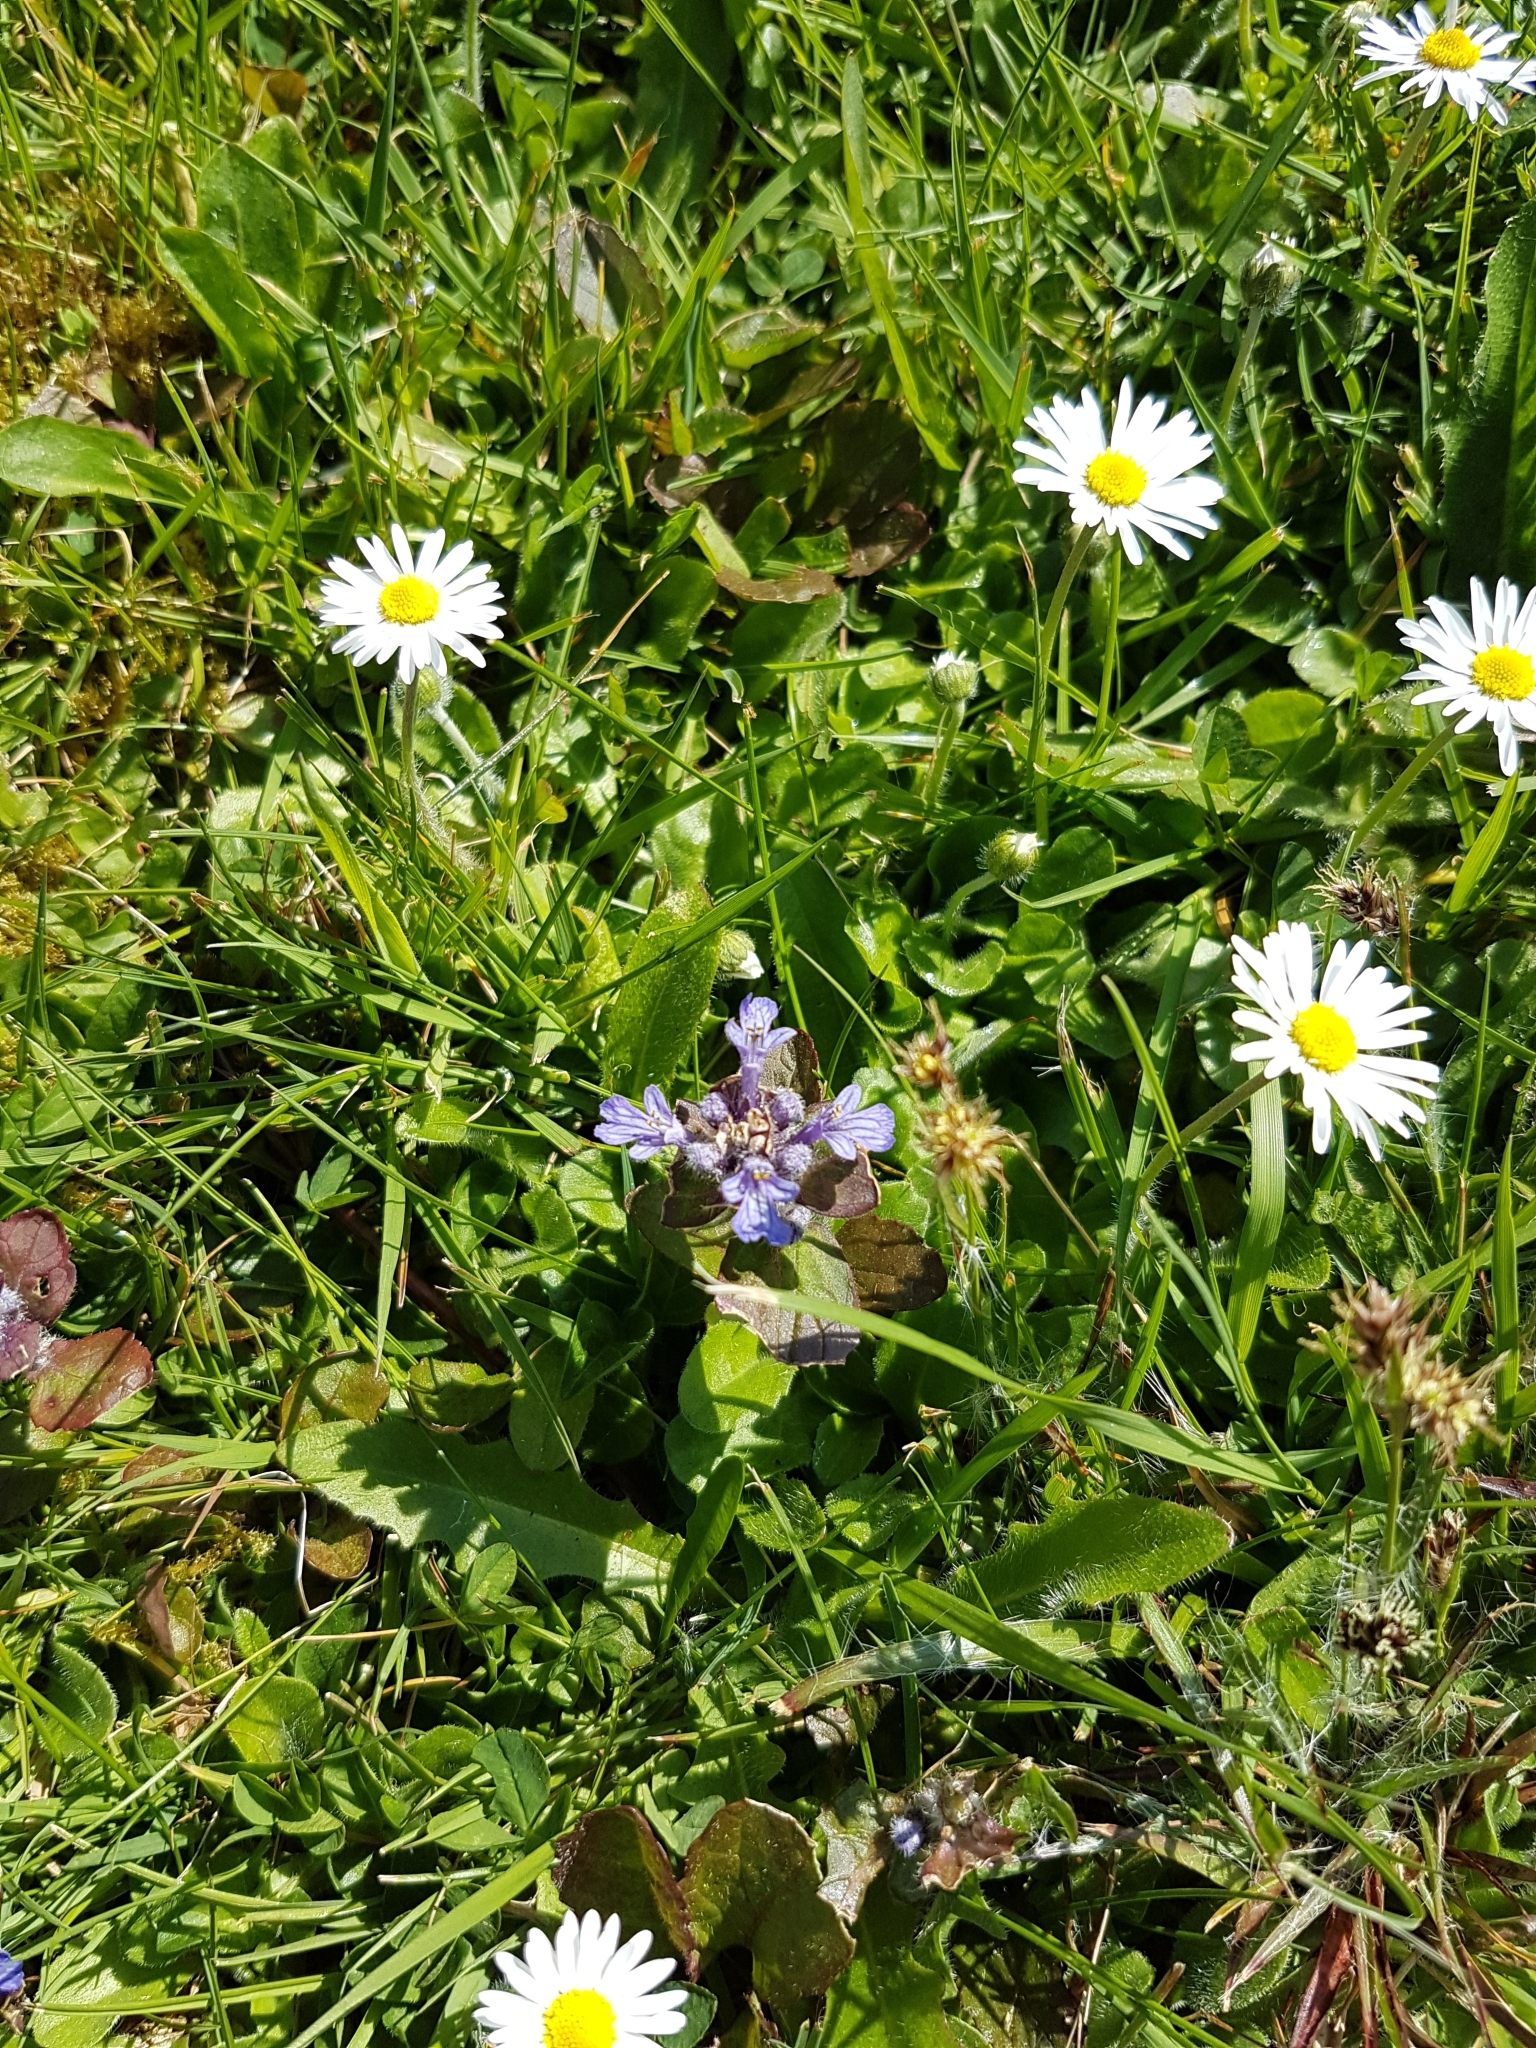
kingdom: Plantae
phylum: Tracheophyta
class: Magnoliopsida
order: Lamiales
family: Lamiaceae
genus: Ajuga
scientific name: Ajuga reptans
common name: Bugle
